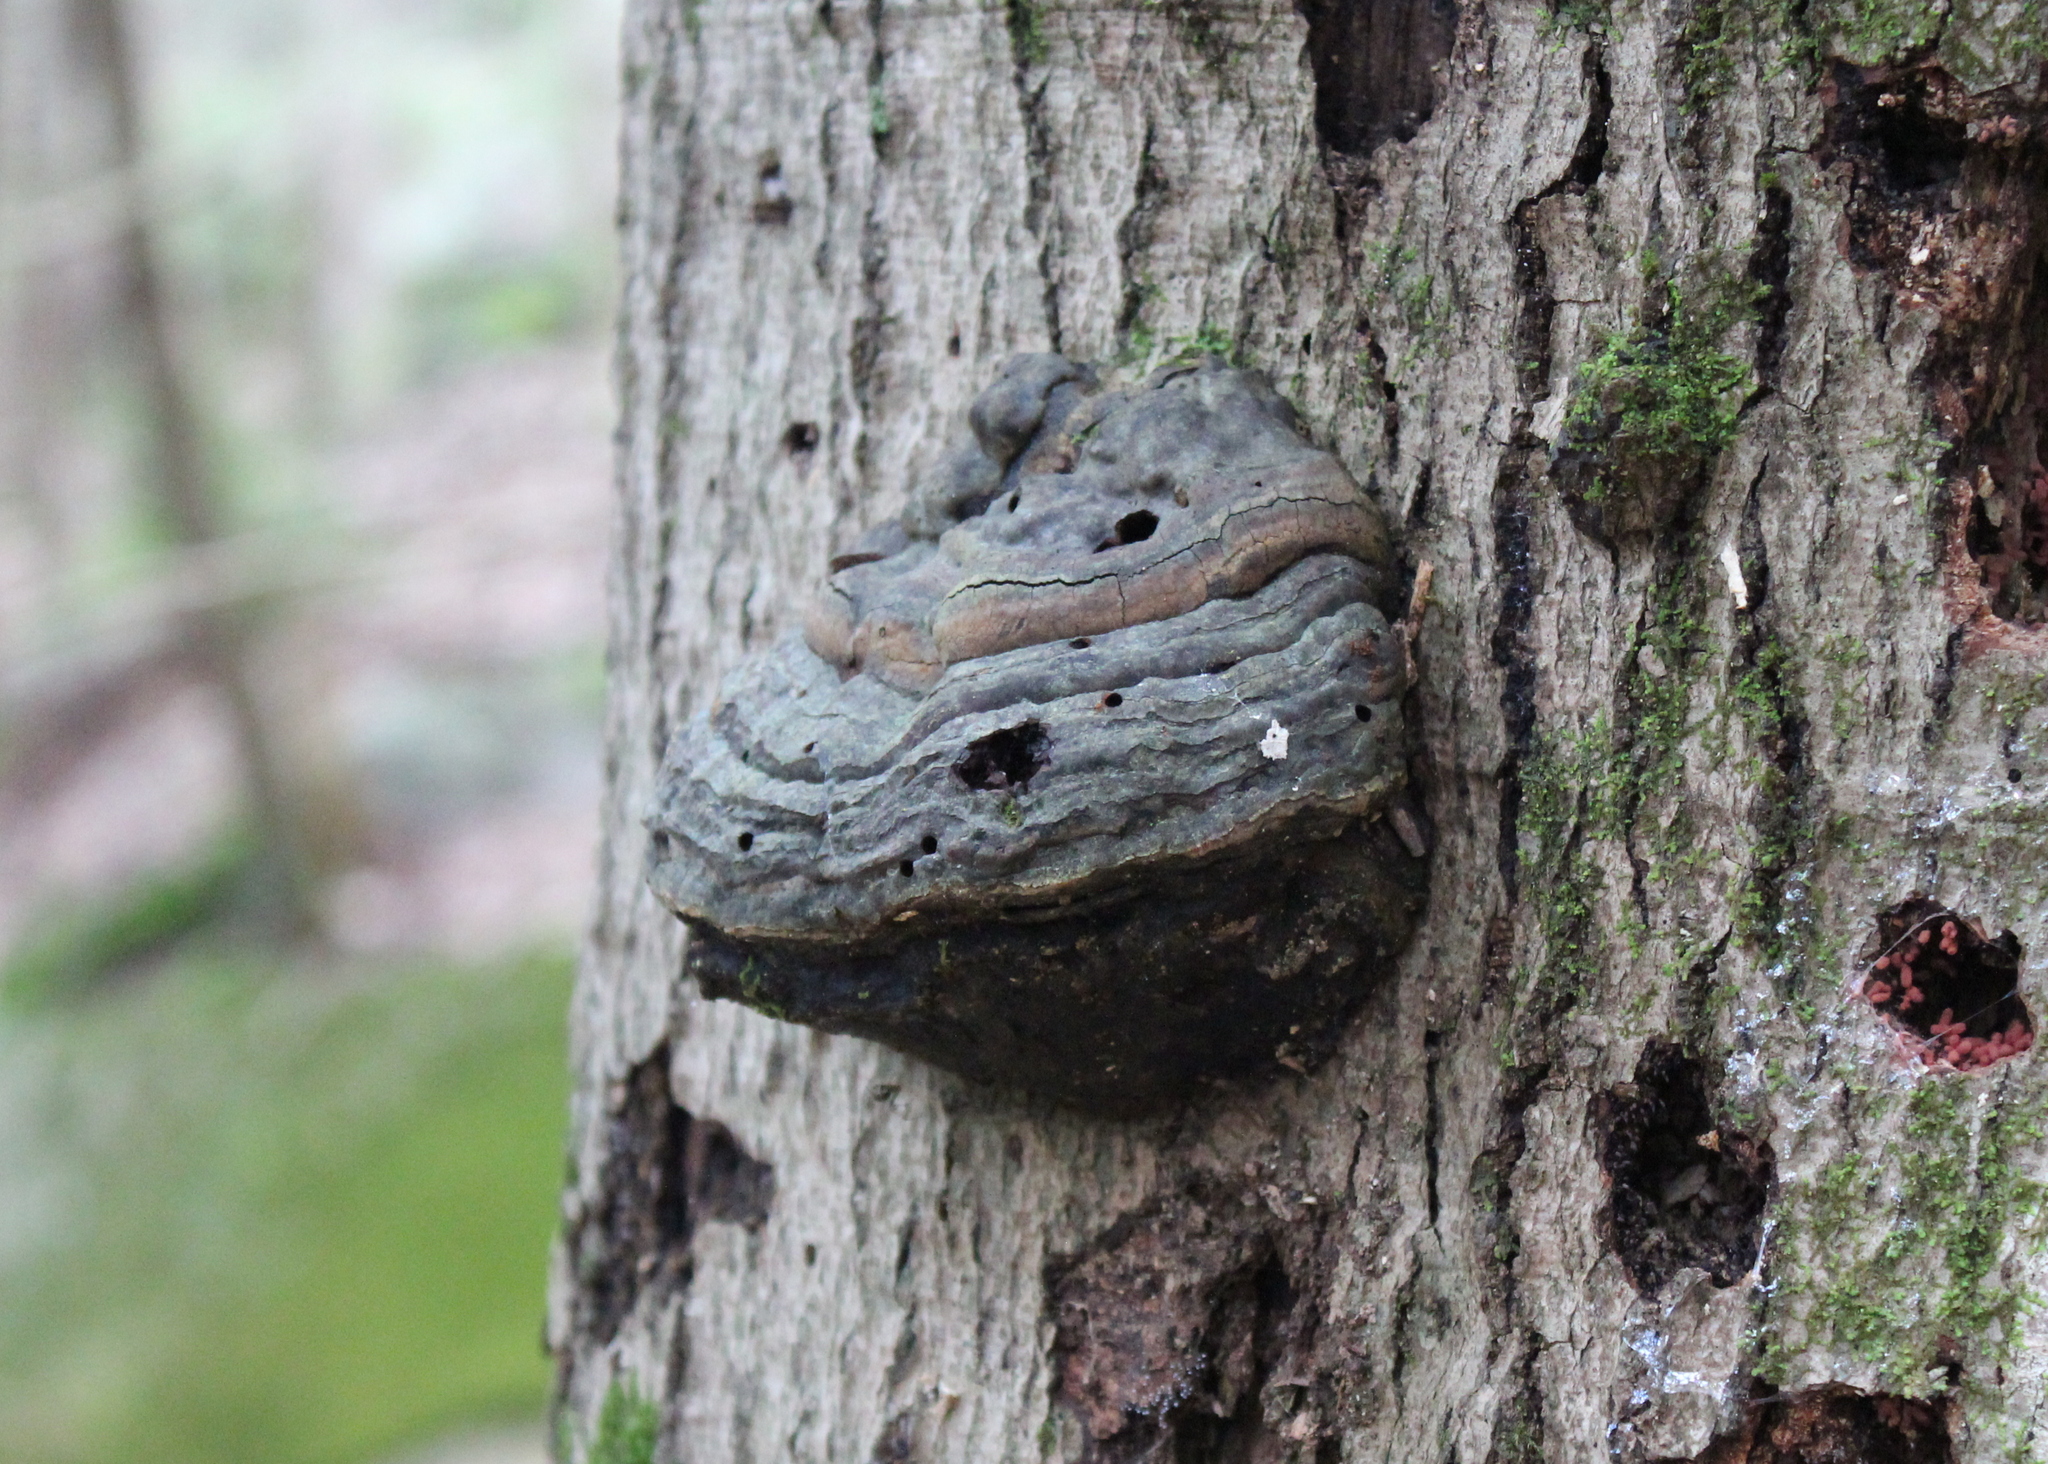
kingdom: Fungi
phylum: Basidiomycota
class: Agaricomycetes
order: Polyporales
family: Polyporaceae
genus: Fomes
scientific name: Fomes fomentarius
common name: Hoof fungus
